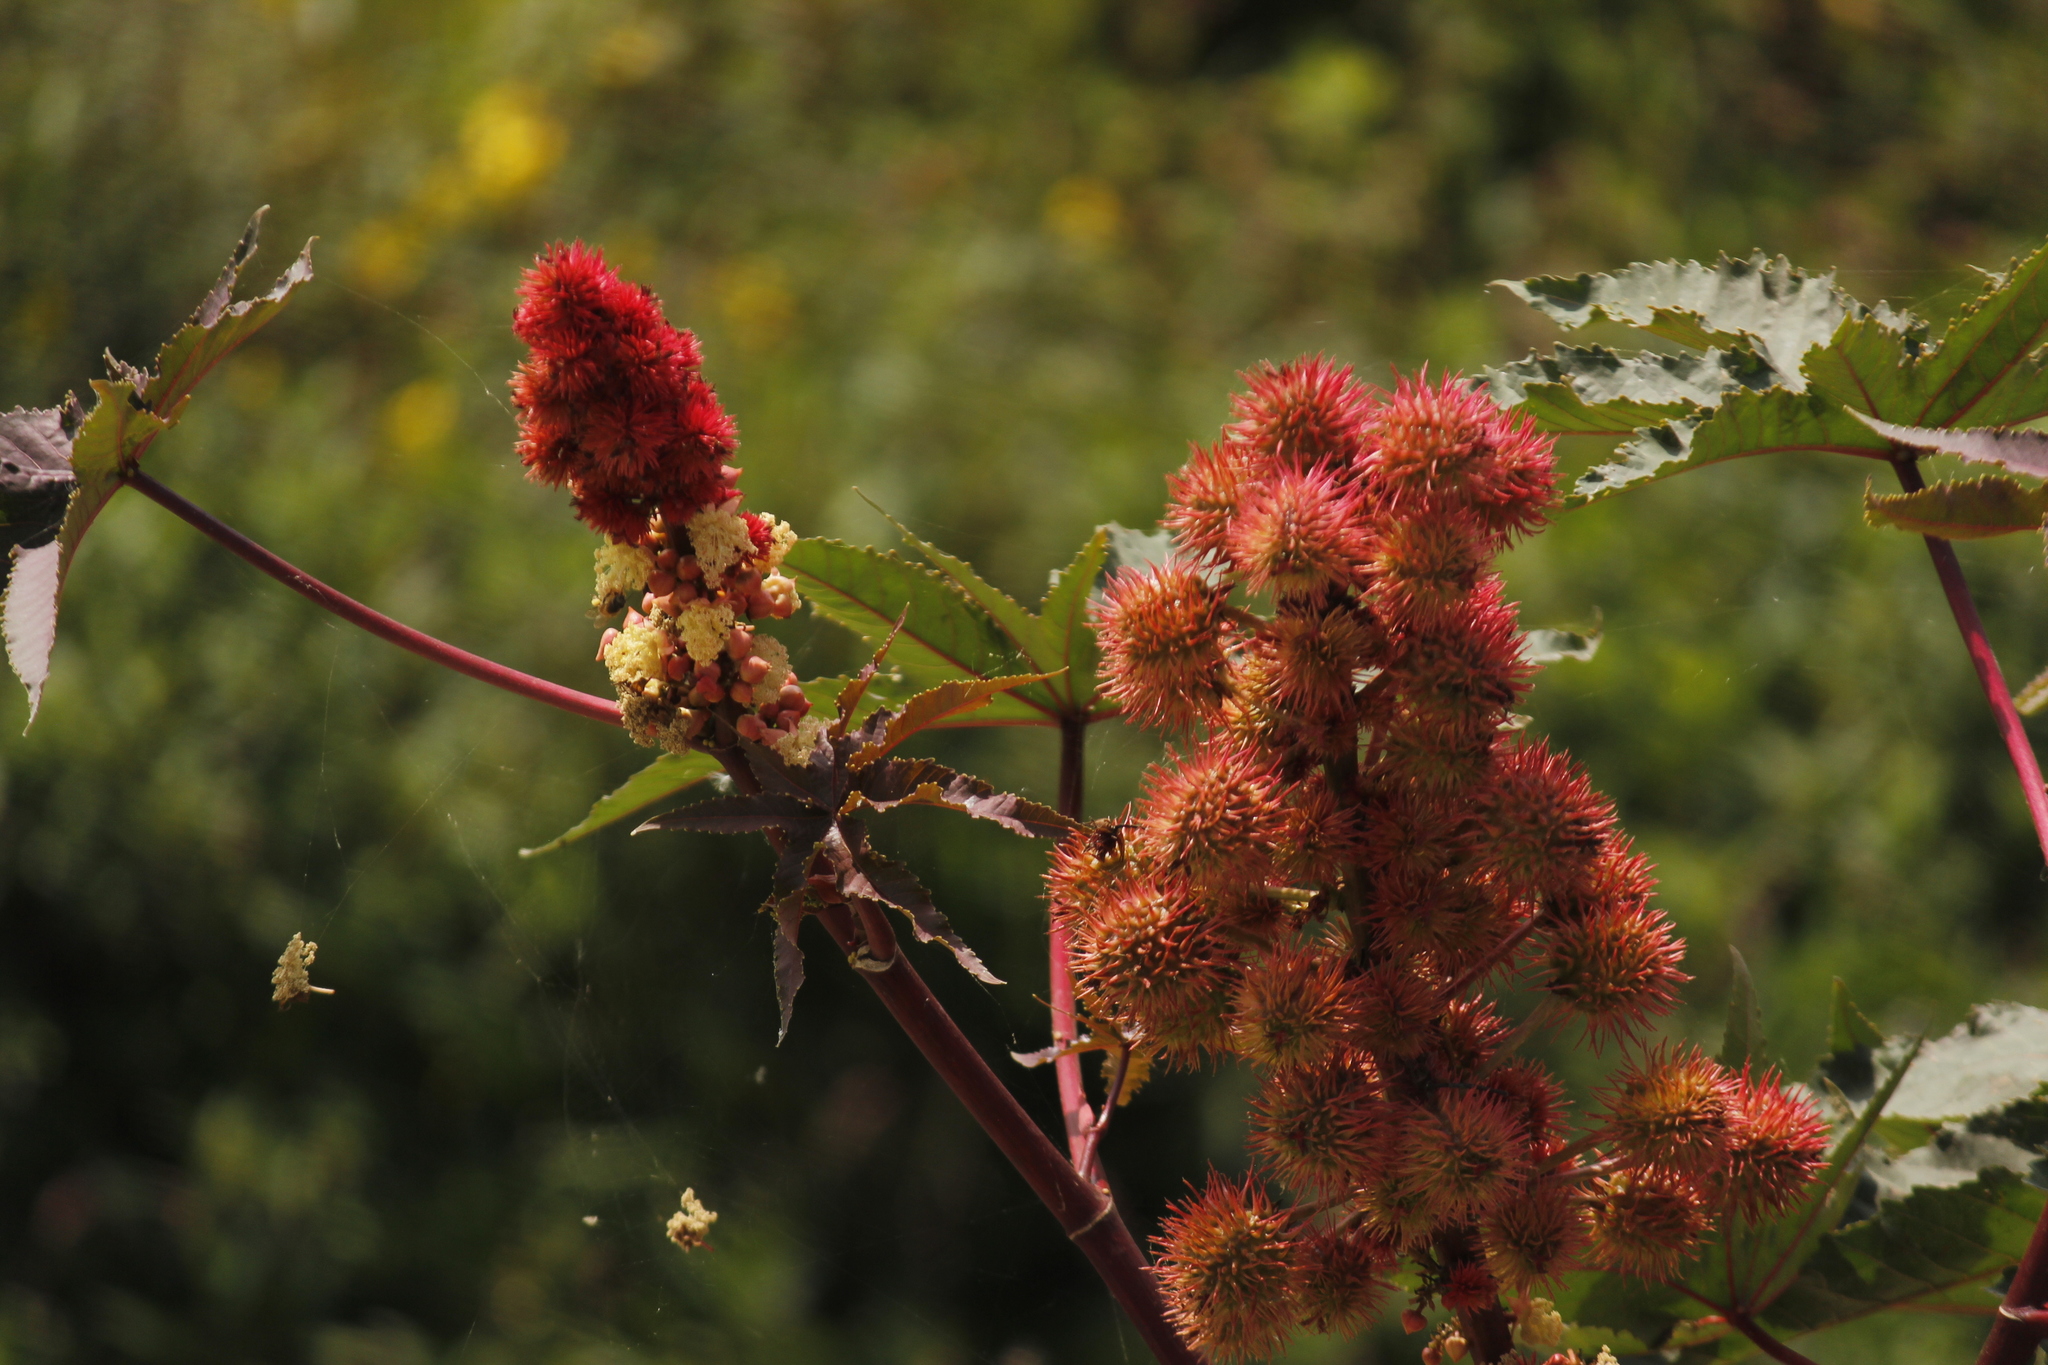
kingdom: Plantae
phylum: Tracheophyta
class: Magnoliopsida
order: Malpighiales
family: Euphorbiaceae
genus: Ricinus
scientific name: Ricinus communis
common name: Castor-oil-plant
